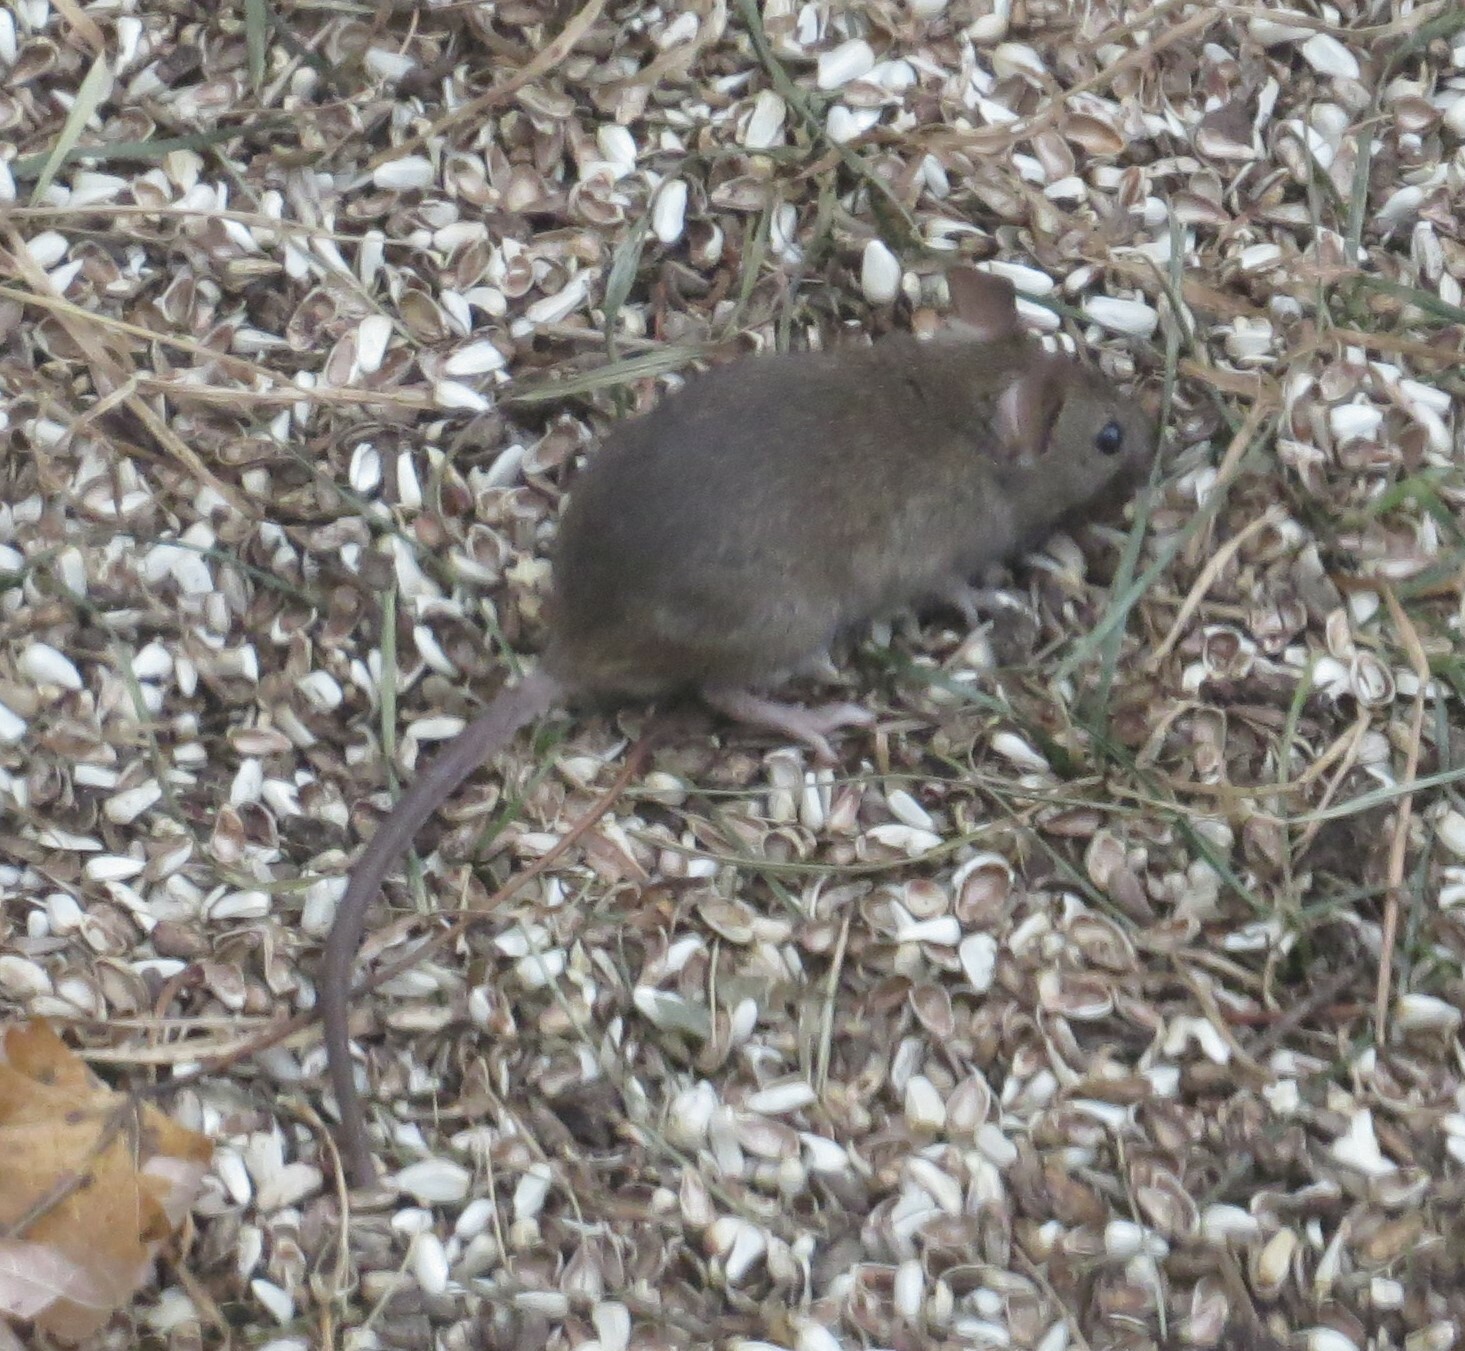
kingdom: Animalia
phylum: Chordata
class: Mammalia
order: Rodentia
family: Muridae
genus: Mus
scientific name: Mus musculus
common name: House mouse
